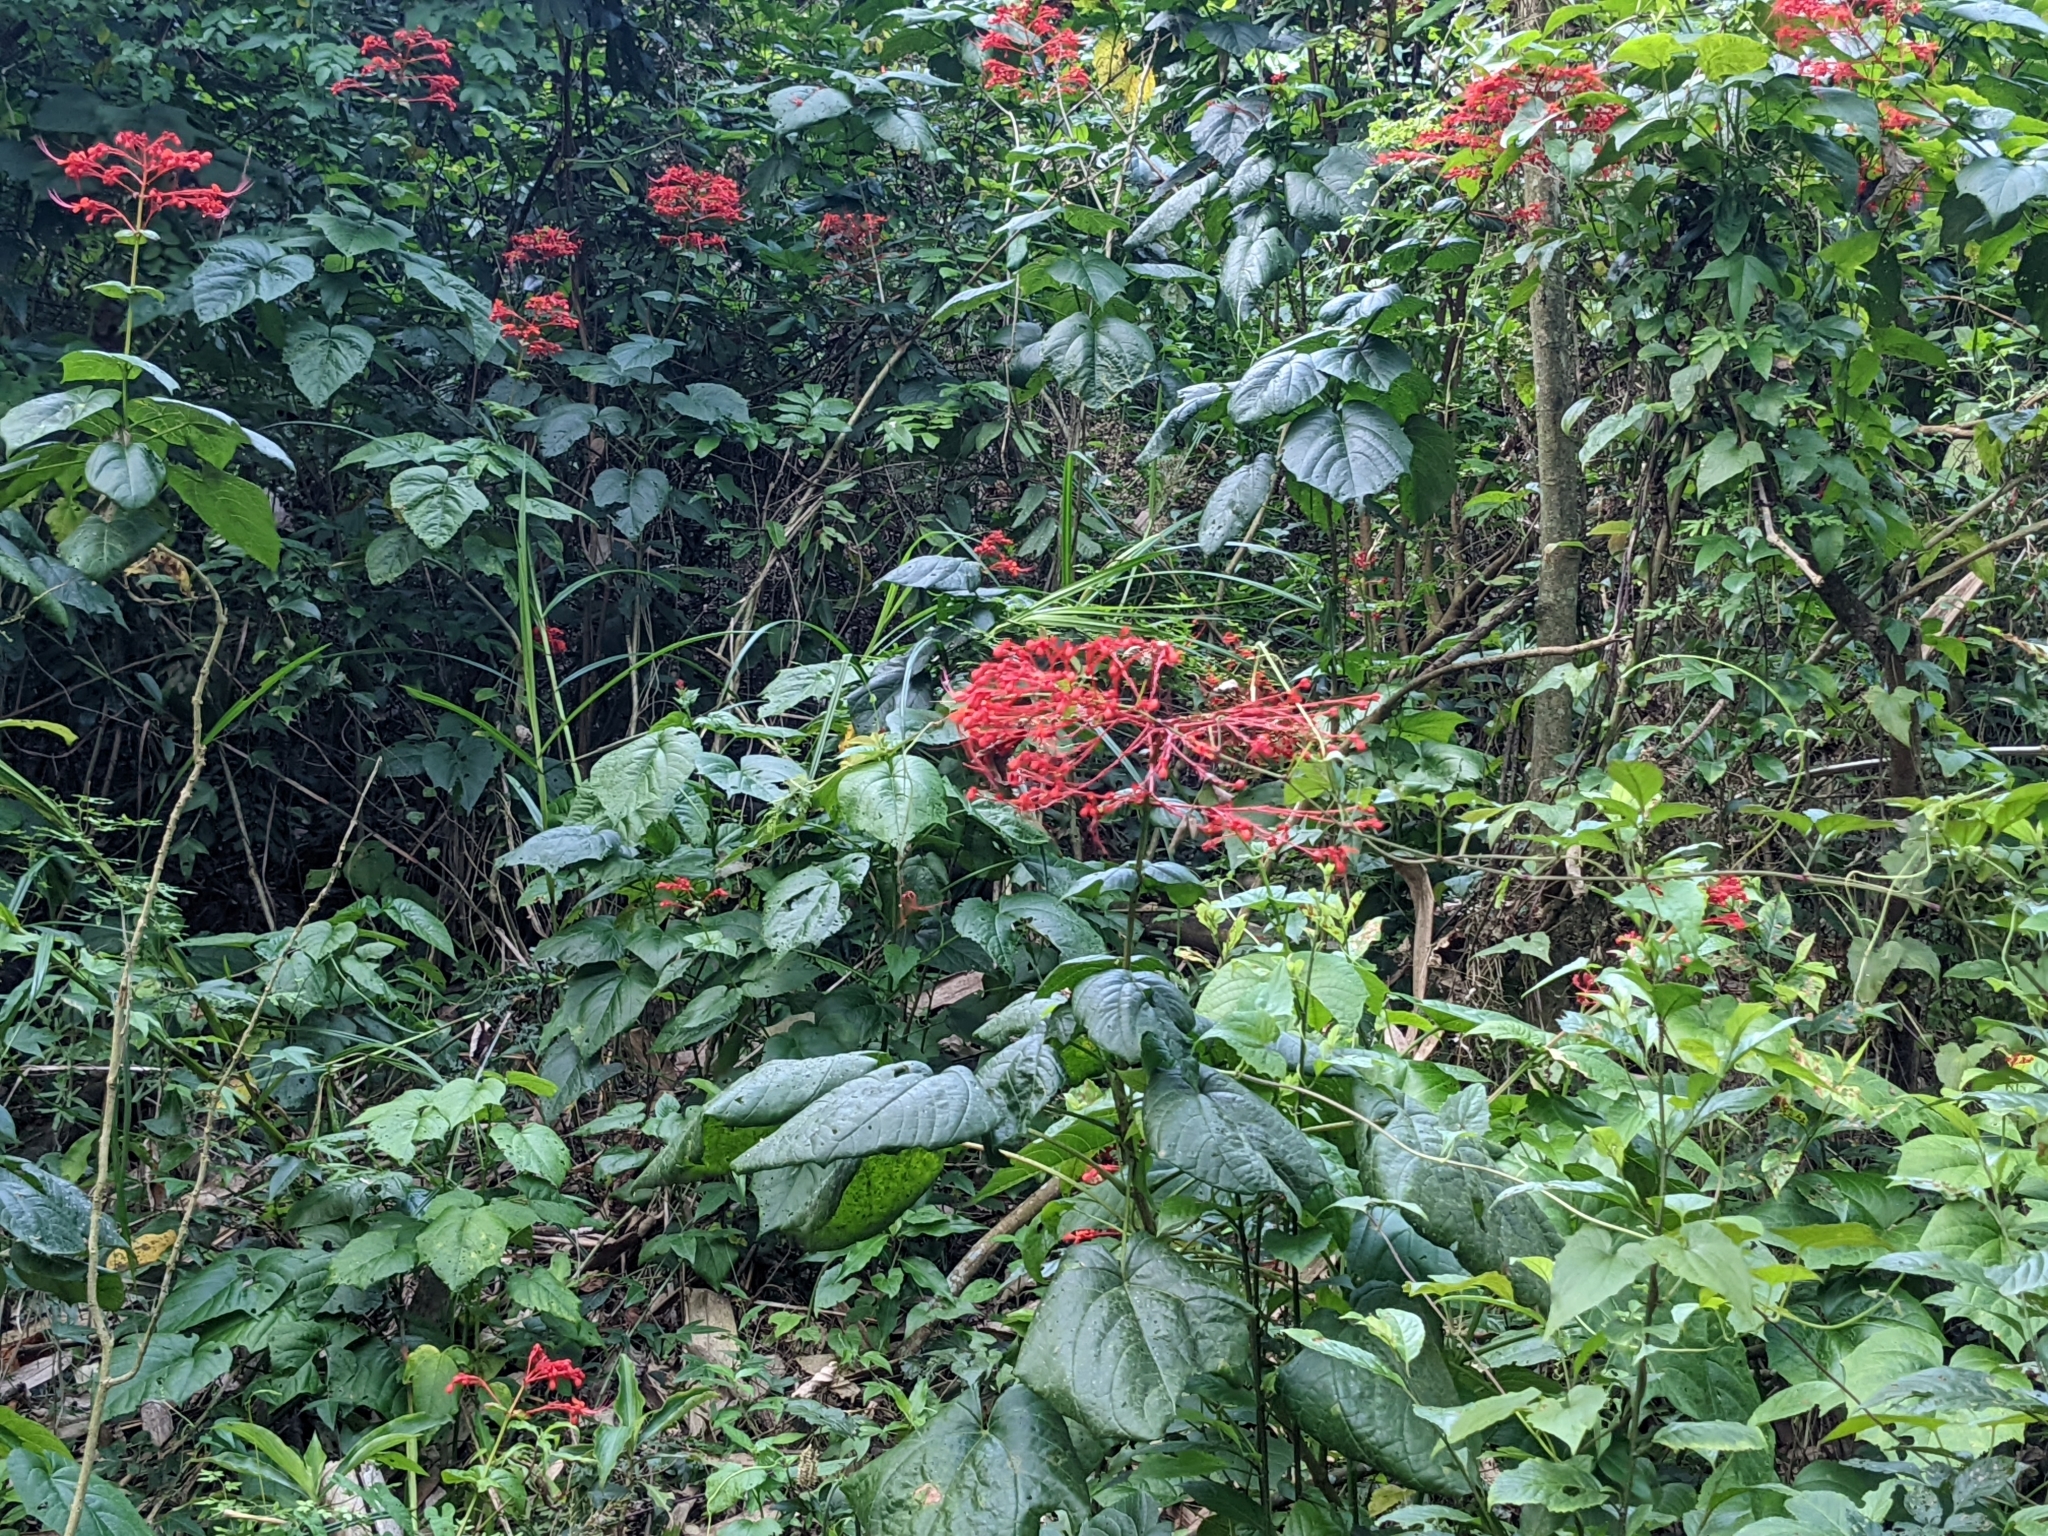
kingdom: Plantae
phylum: Tracheophyta
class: Magnoliopsida
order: Lamiales
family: Lamiaceae
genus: Clerodendrum
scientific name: Clerodendrum japonicum
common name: Japanese glorybower
